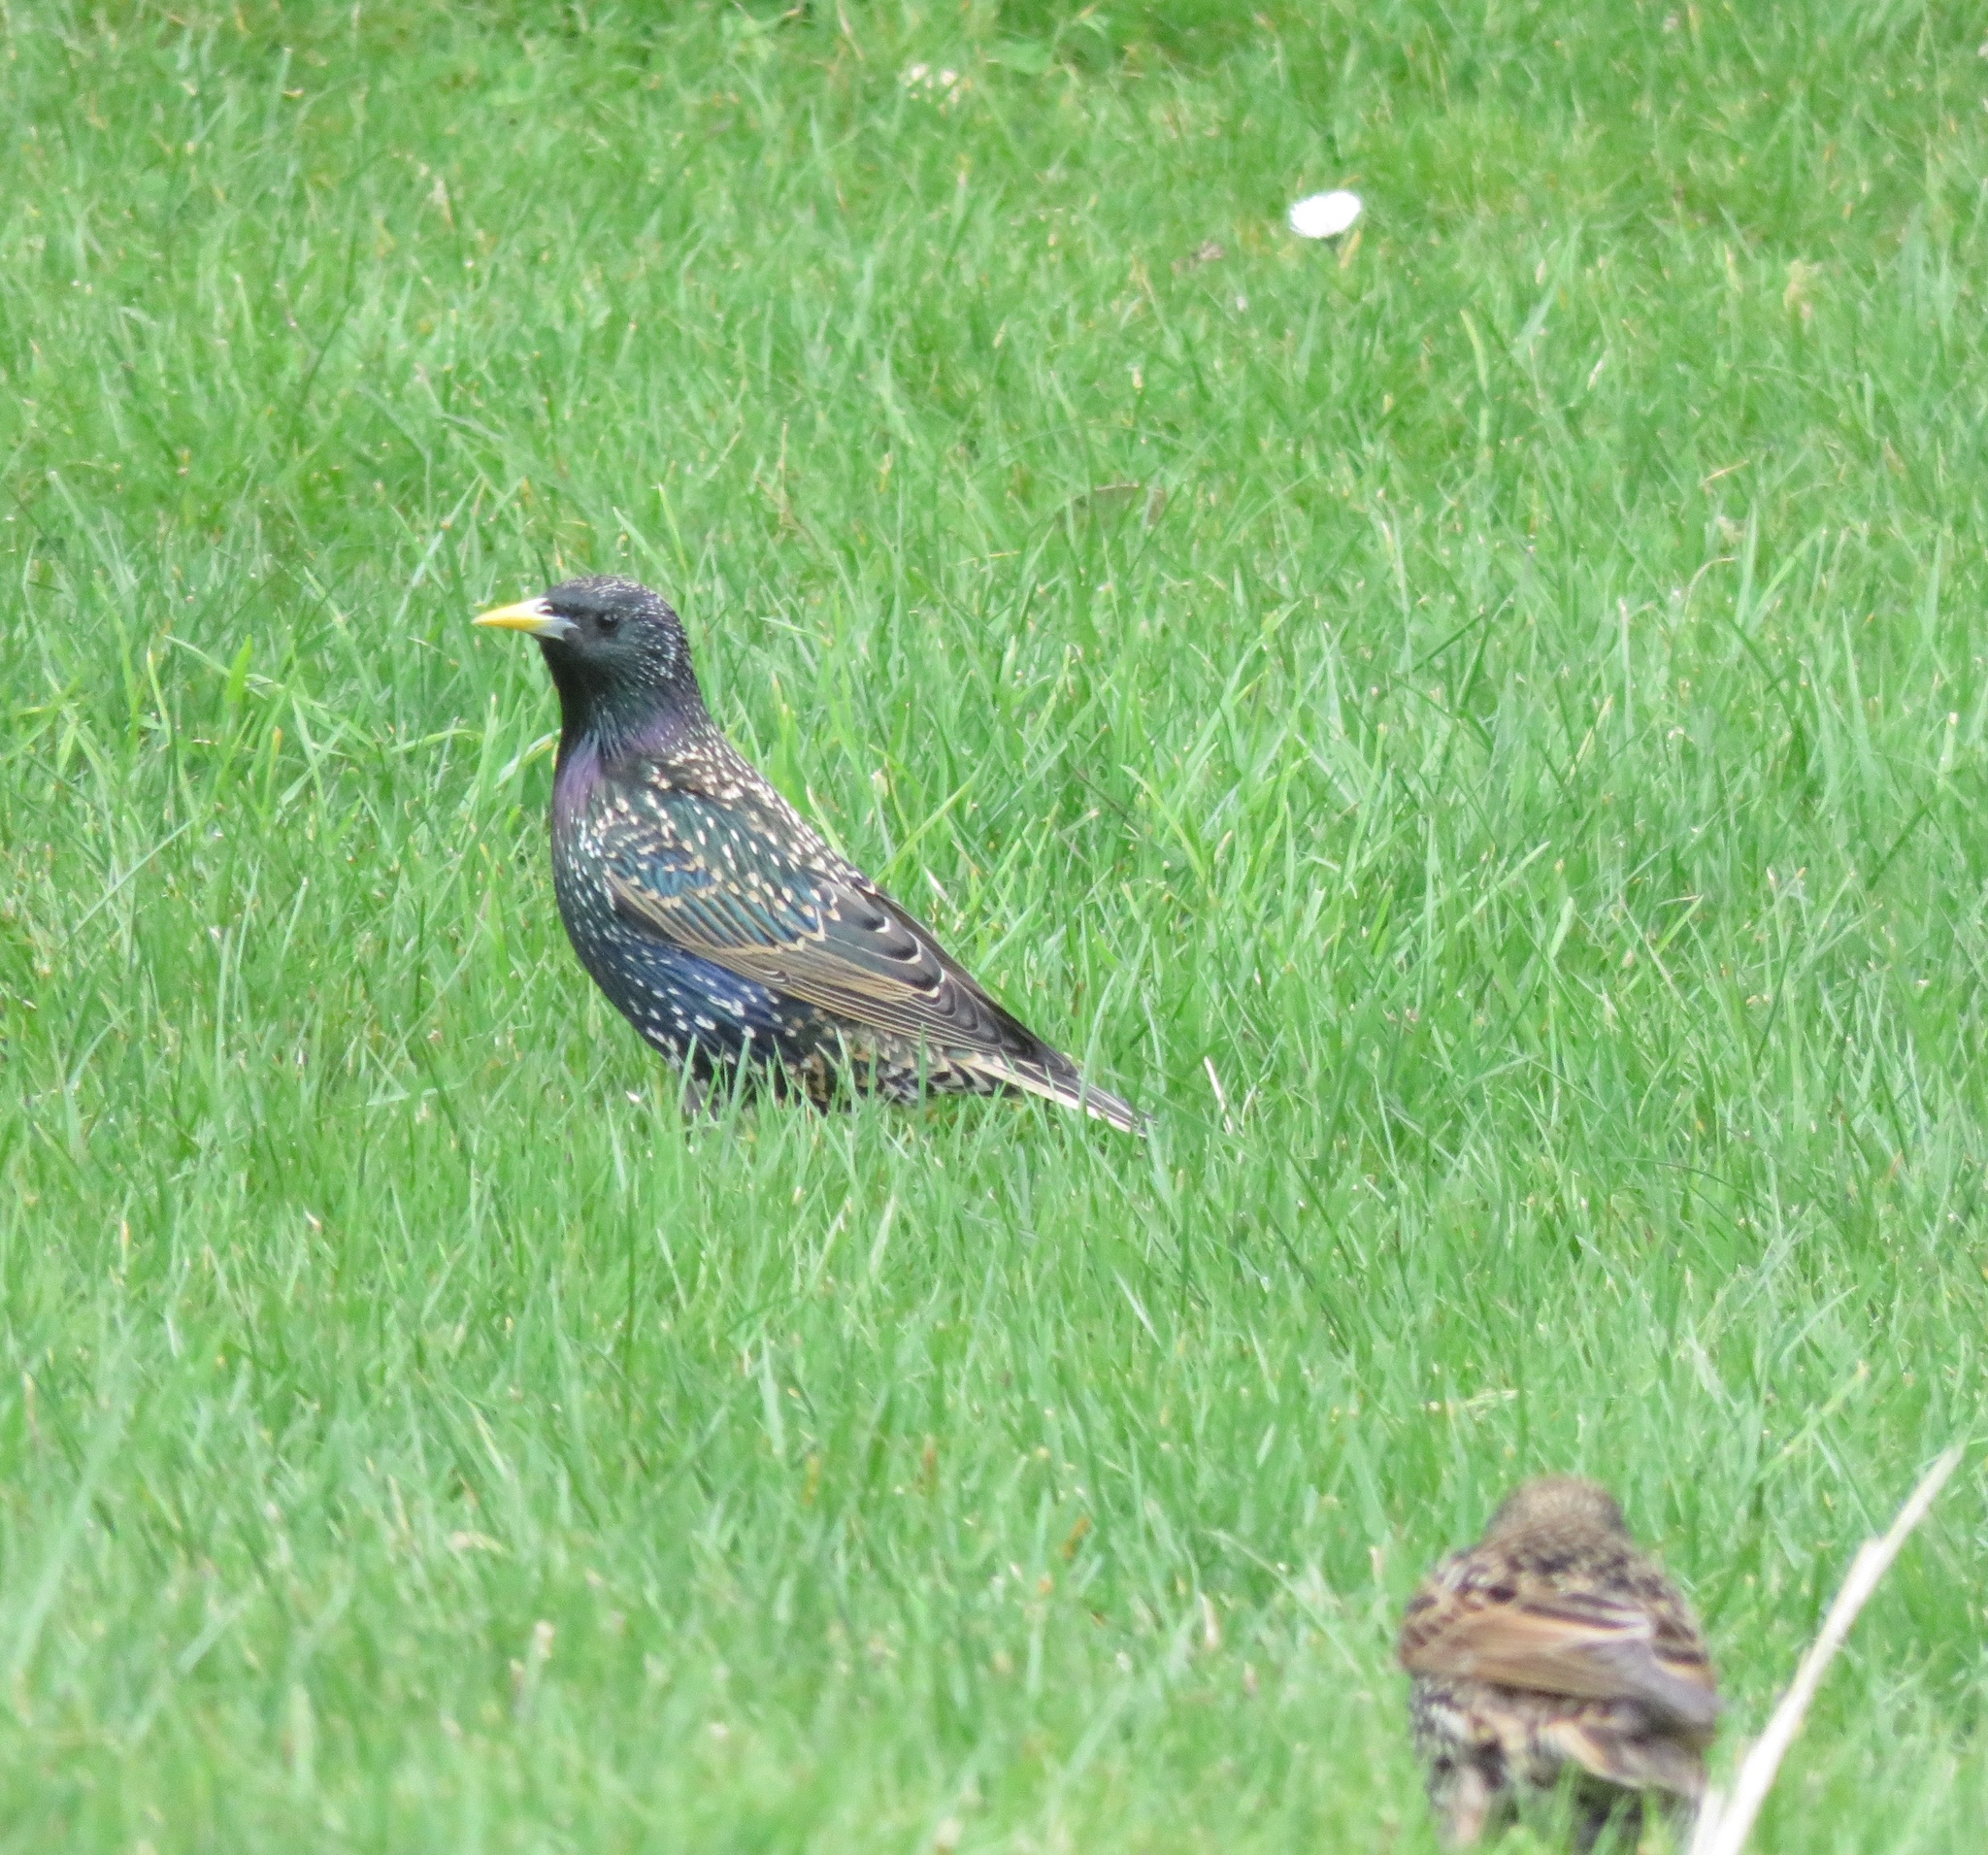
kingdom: Animalia
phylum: Chordata
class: Aves
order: Passeriformes
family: Sturnidae
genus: Sturnus
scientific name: Sturnus vulgaris
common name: Common starling
